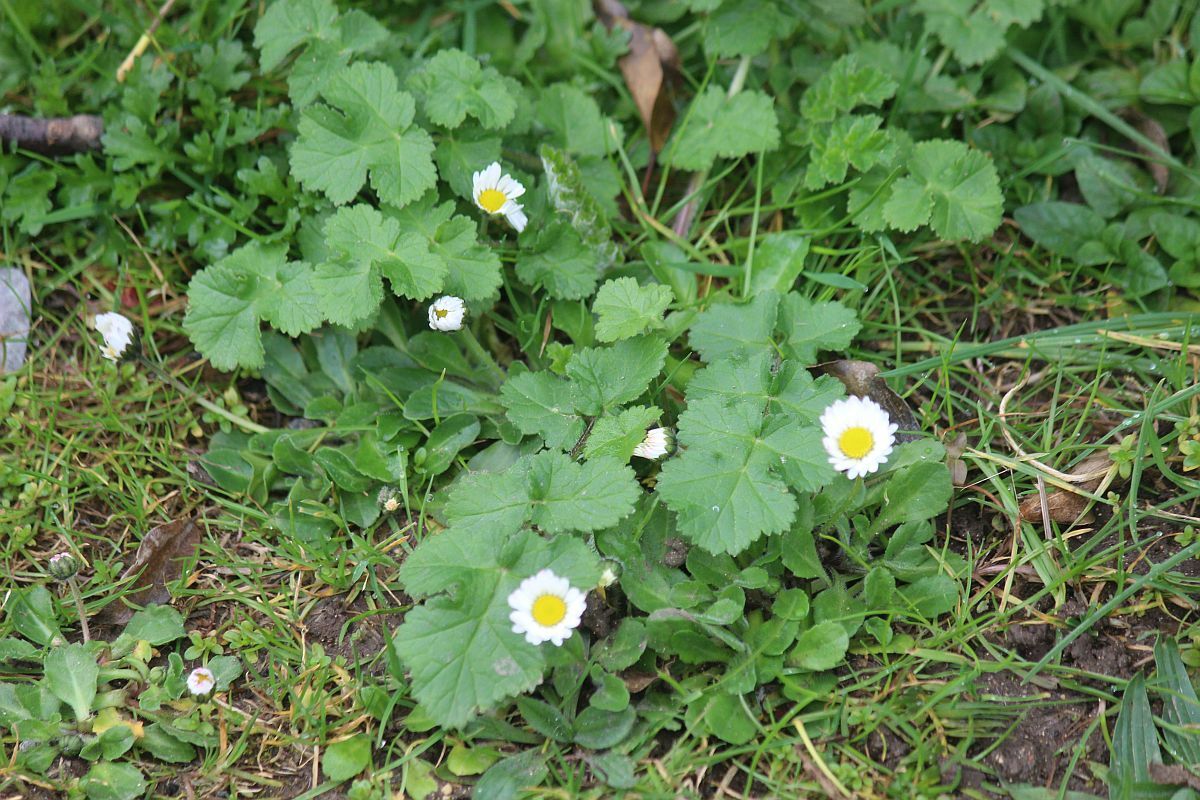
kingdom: Plantae
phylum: Tracheophyta
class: Magnoliopsida
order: Asterales
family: Asteraceae
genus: Bellis
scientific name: Bellis perennis
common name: Lawndaisy
